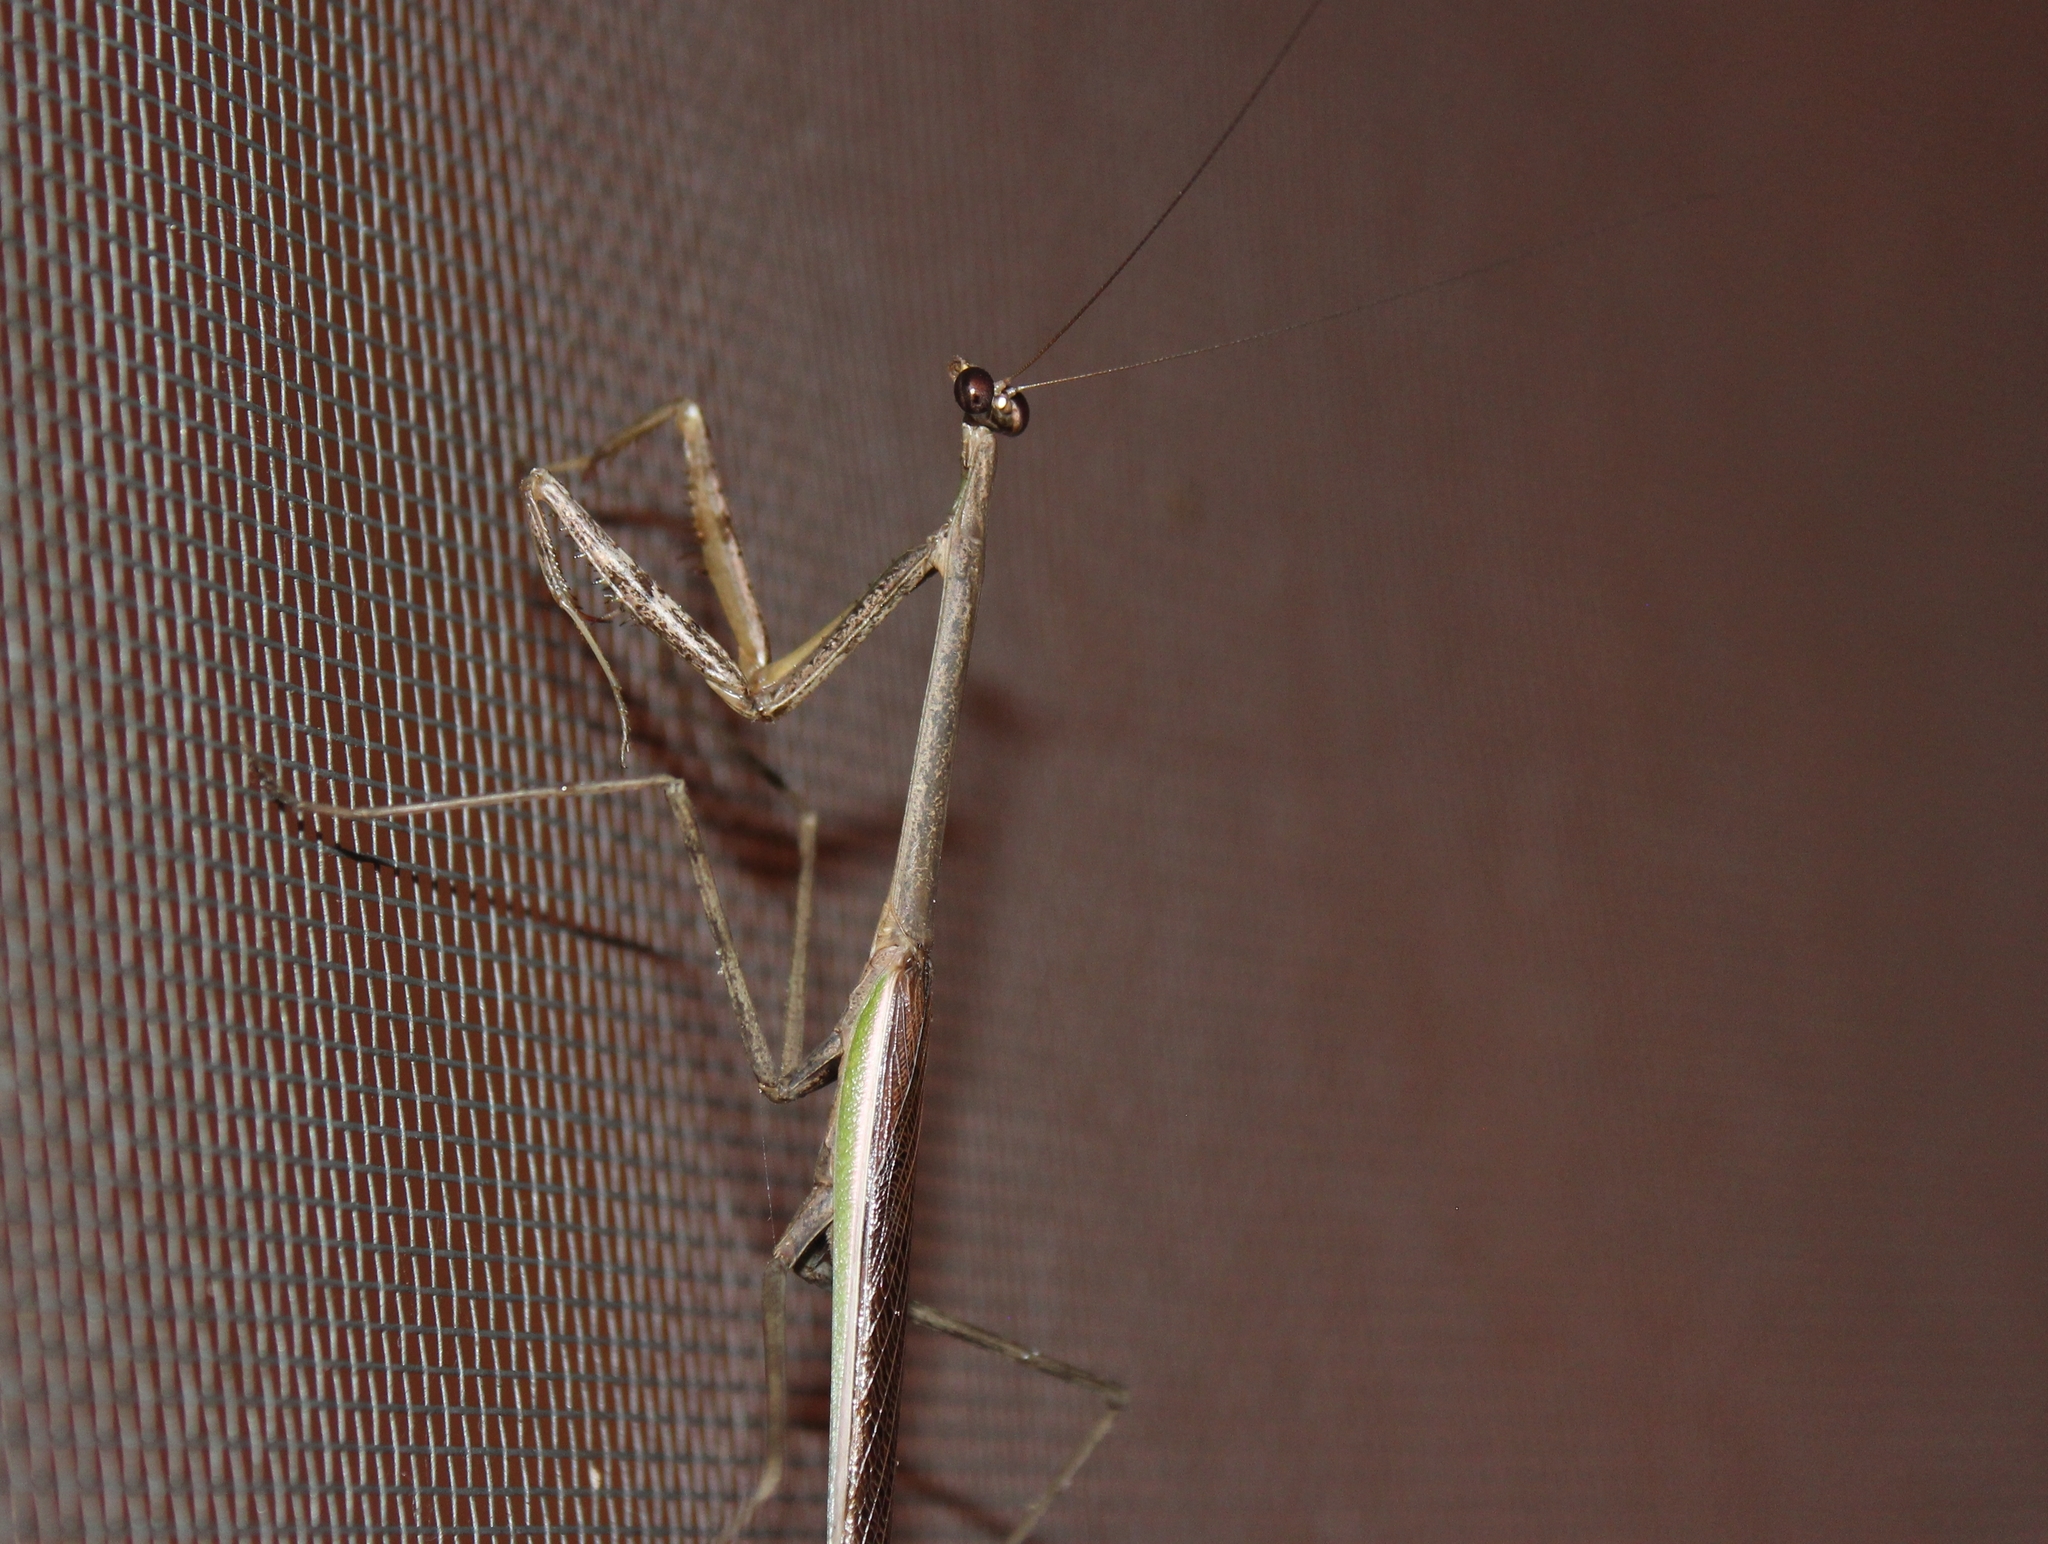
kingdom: Animalia
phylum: Arthropoda
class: Insecta
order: Mantodea
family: Mantidae
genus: Phasmomantis
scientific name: Phasmomantis sumichrasti
